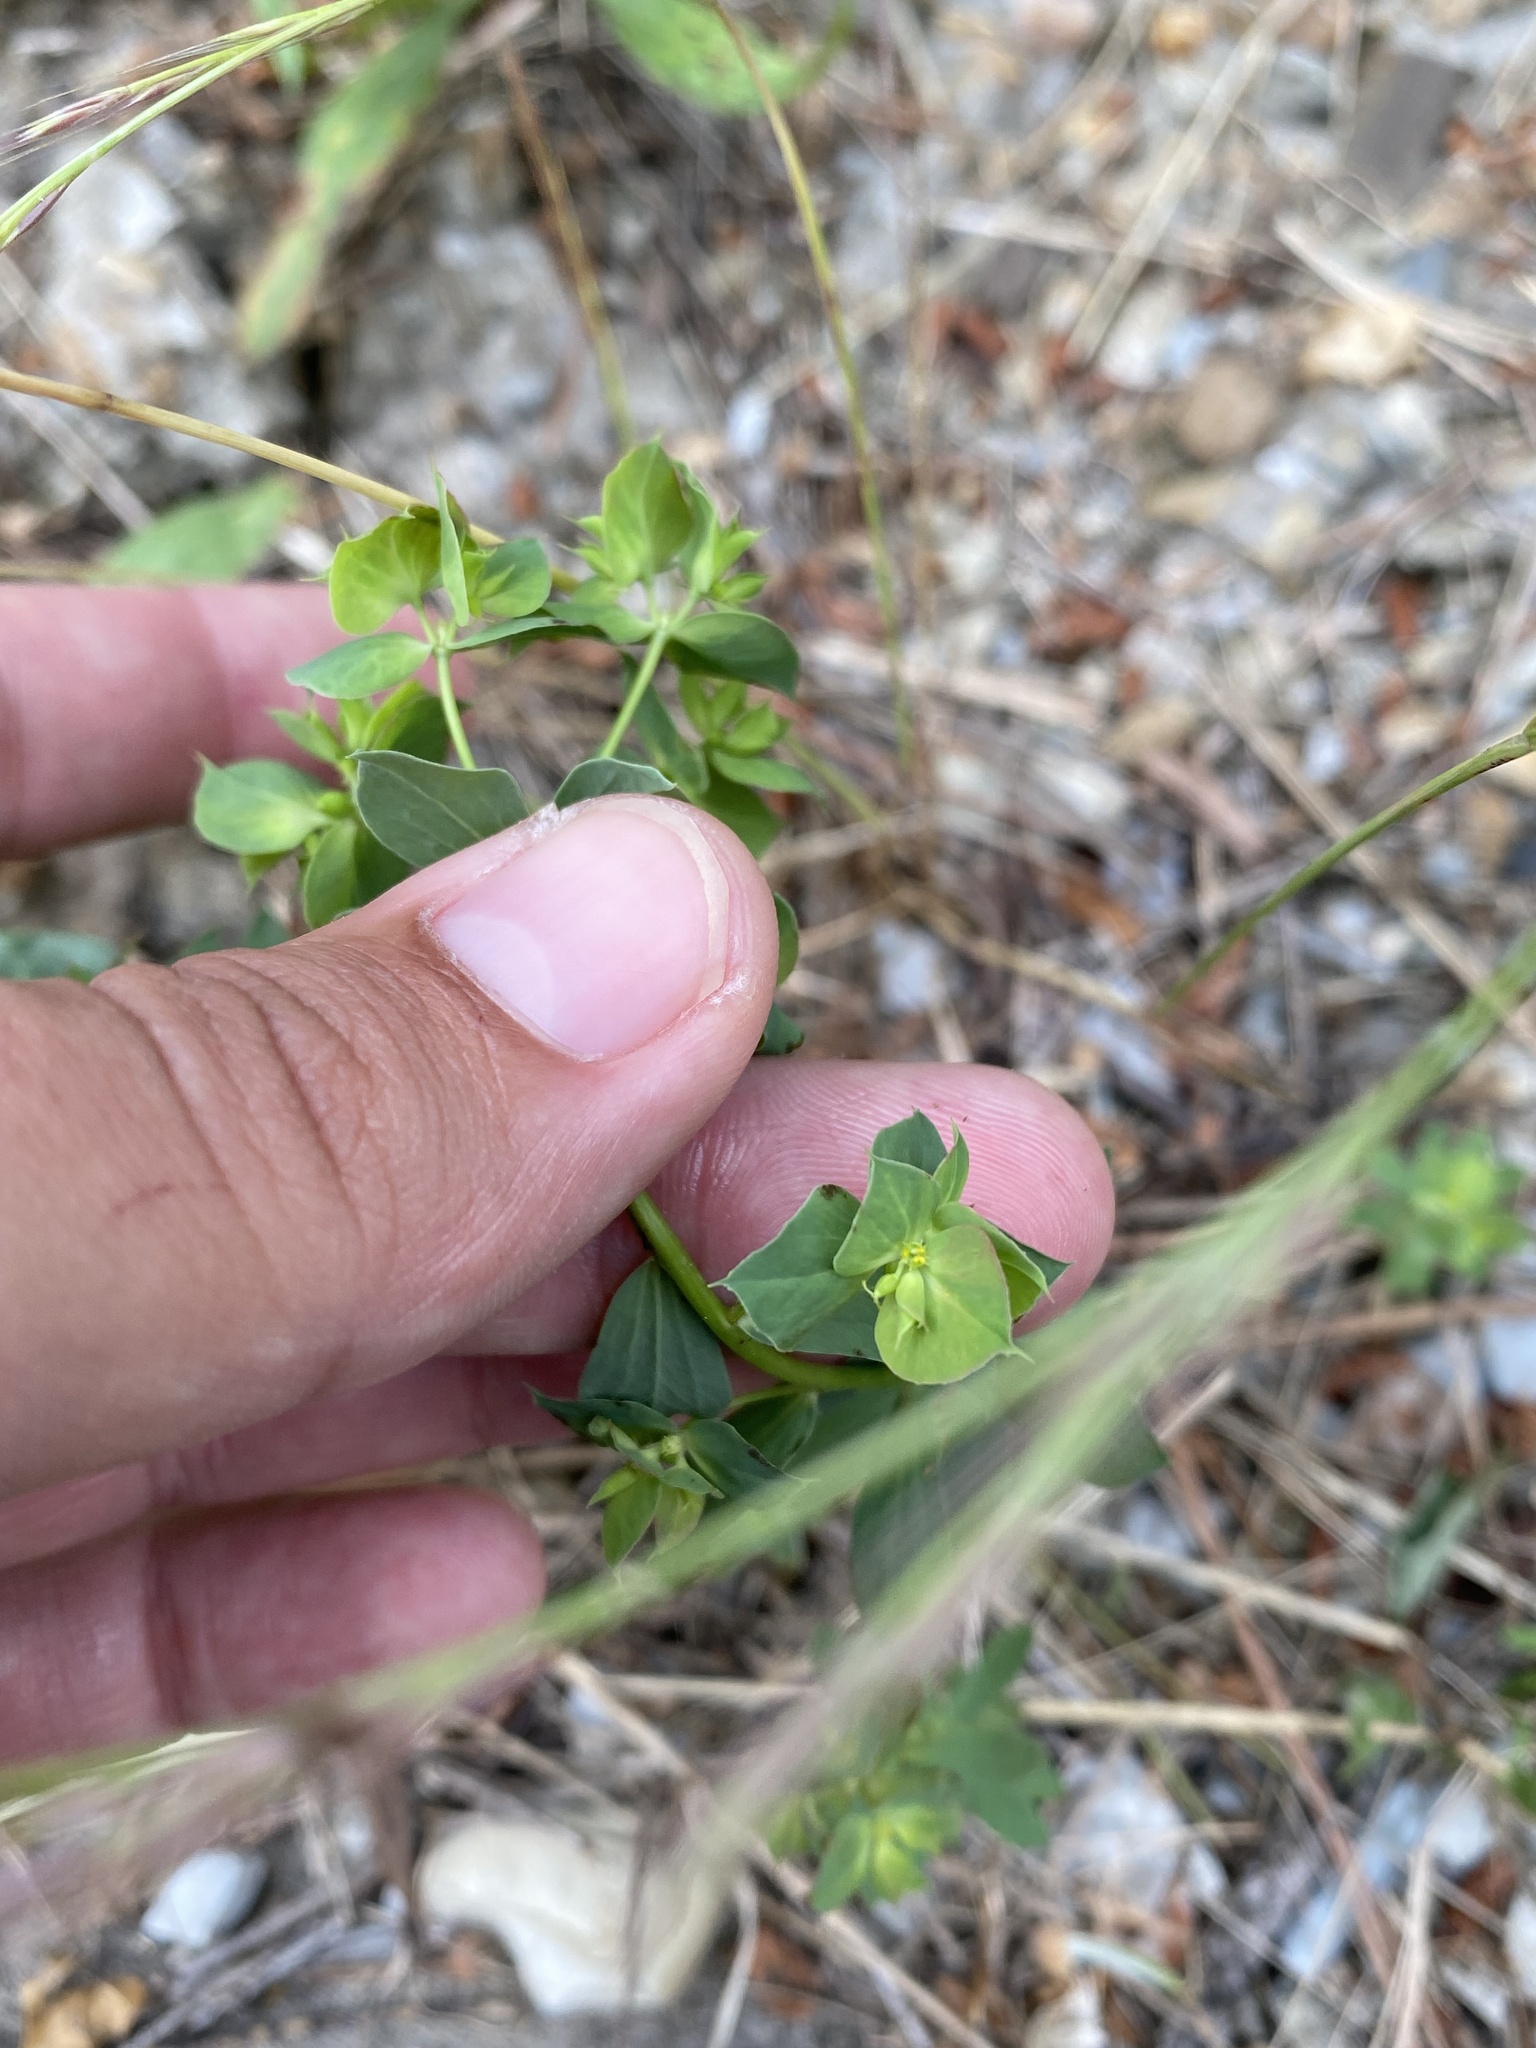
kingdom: Plantae
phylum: Tracheophyta
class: Magnoliopsida
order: Malpighiales
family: Euphorbiaceae
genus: Euphorbia
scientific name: Euphorbia falcata
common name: Sickle spurge
